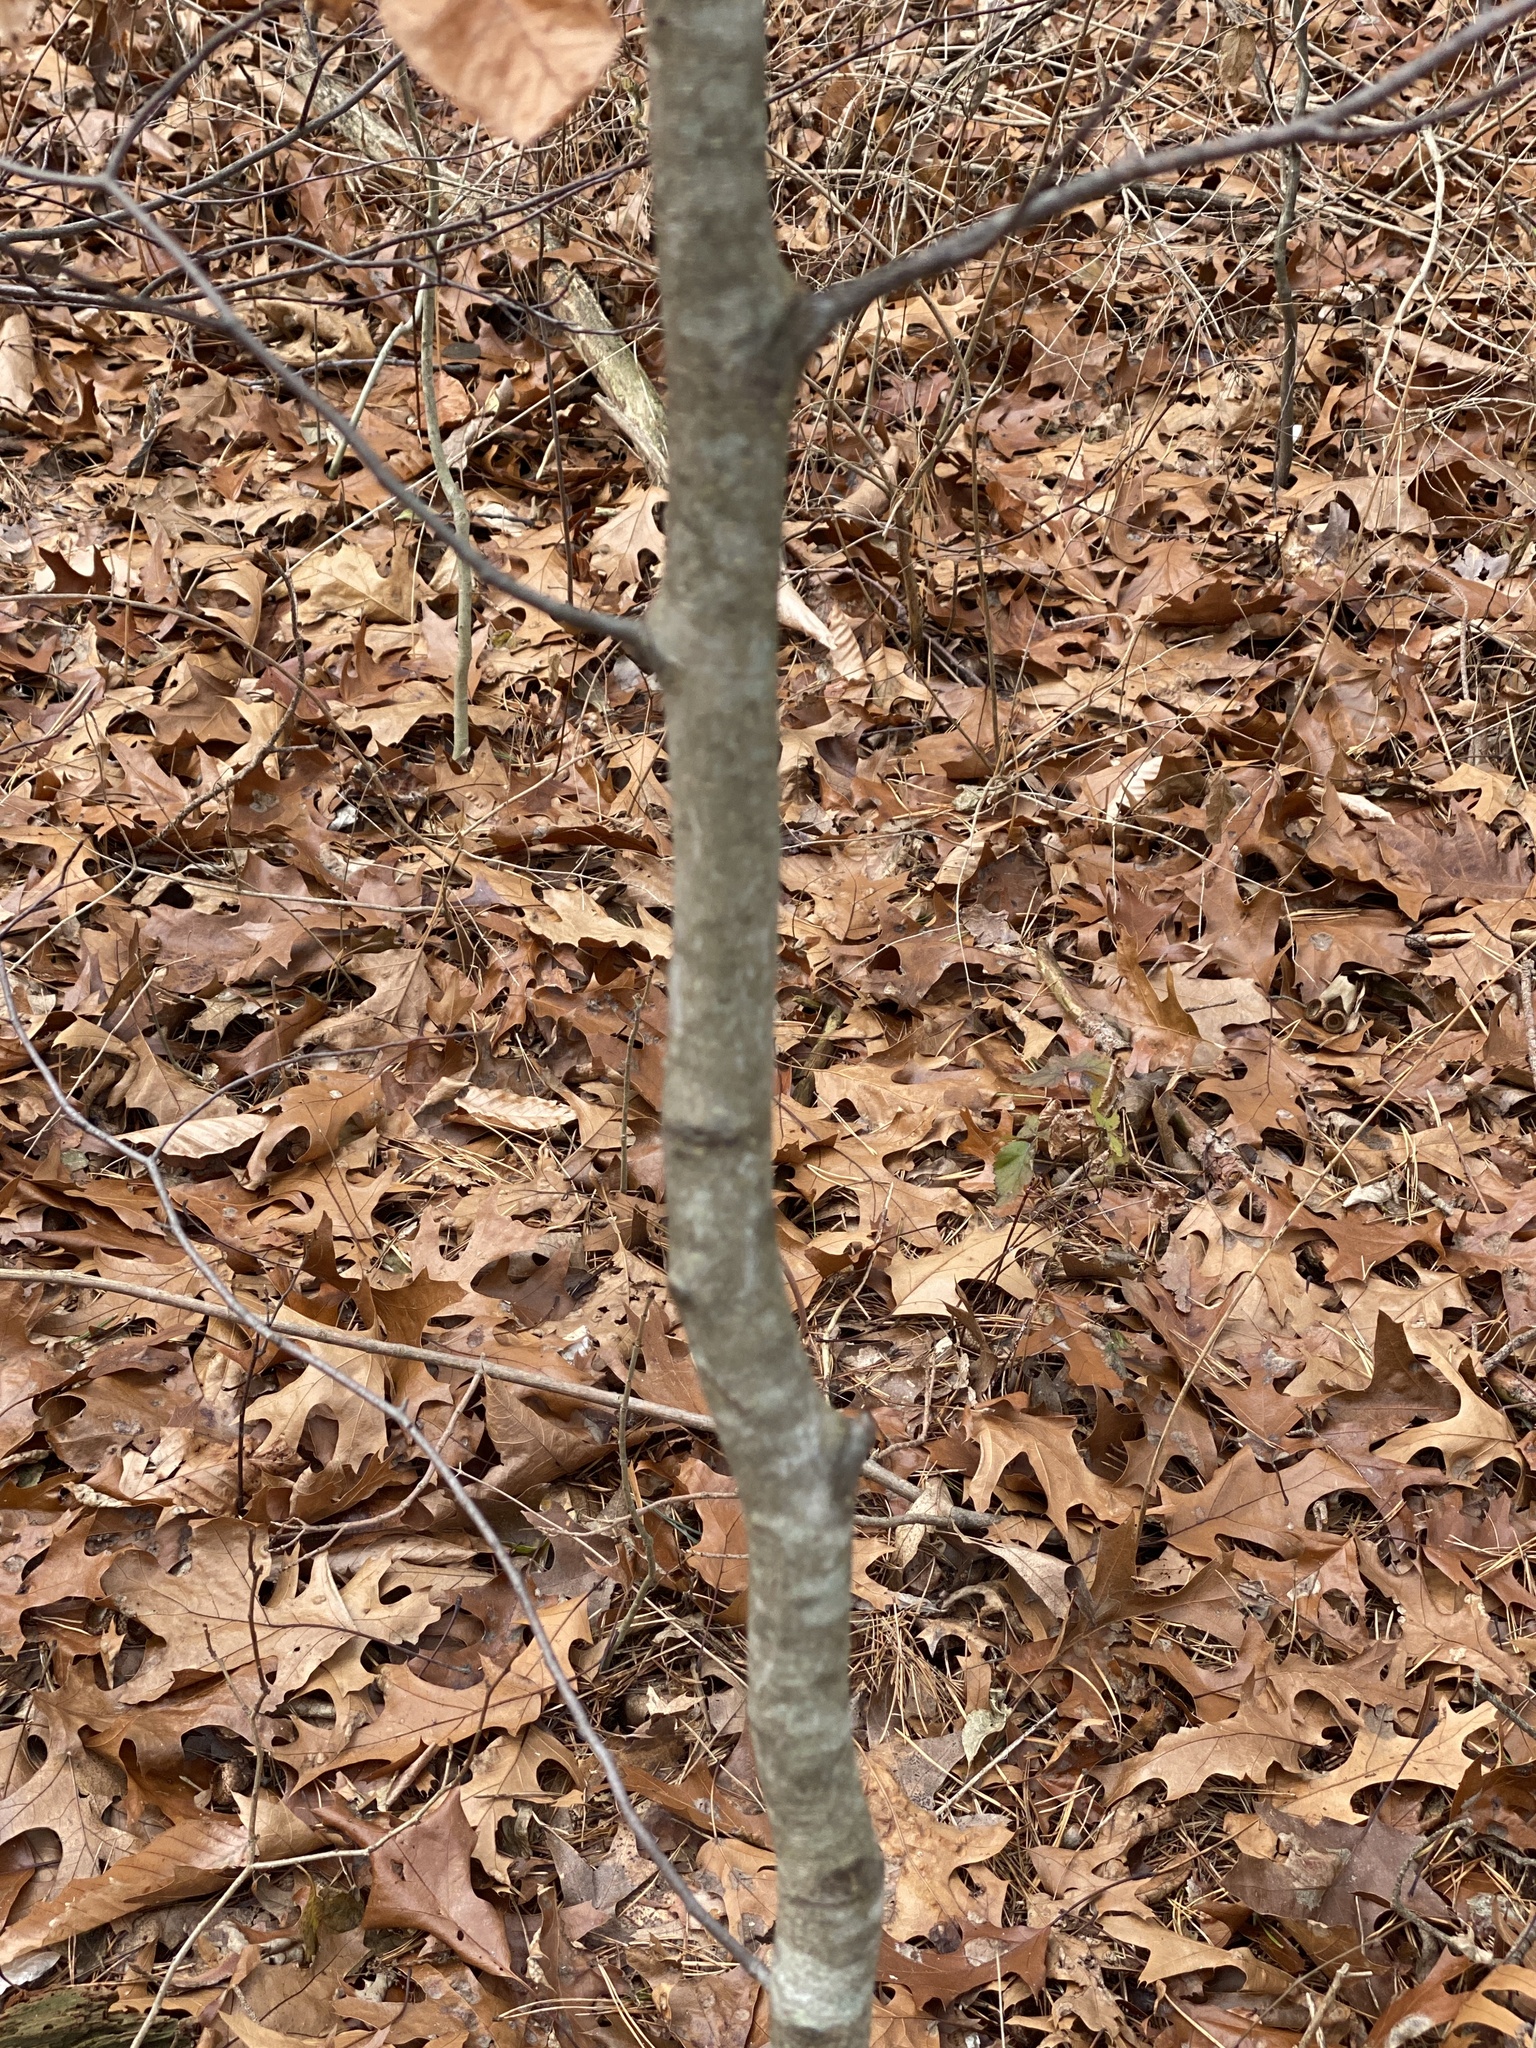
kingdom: Plantae
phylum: Tracheophyta
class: Magnoliopsida
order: Fagales
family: Fagaceae
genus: Fagus
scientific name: Fagus grandifolia
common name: American beech
